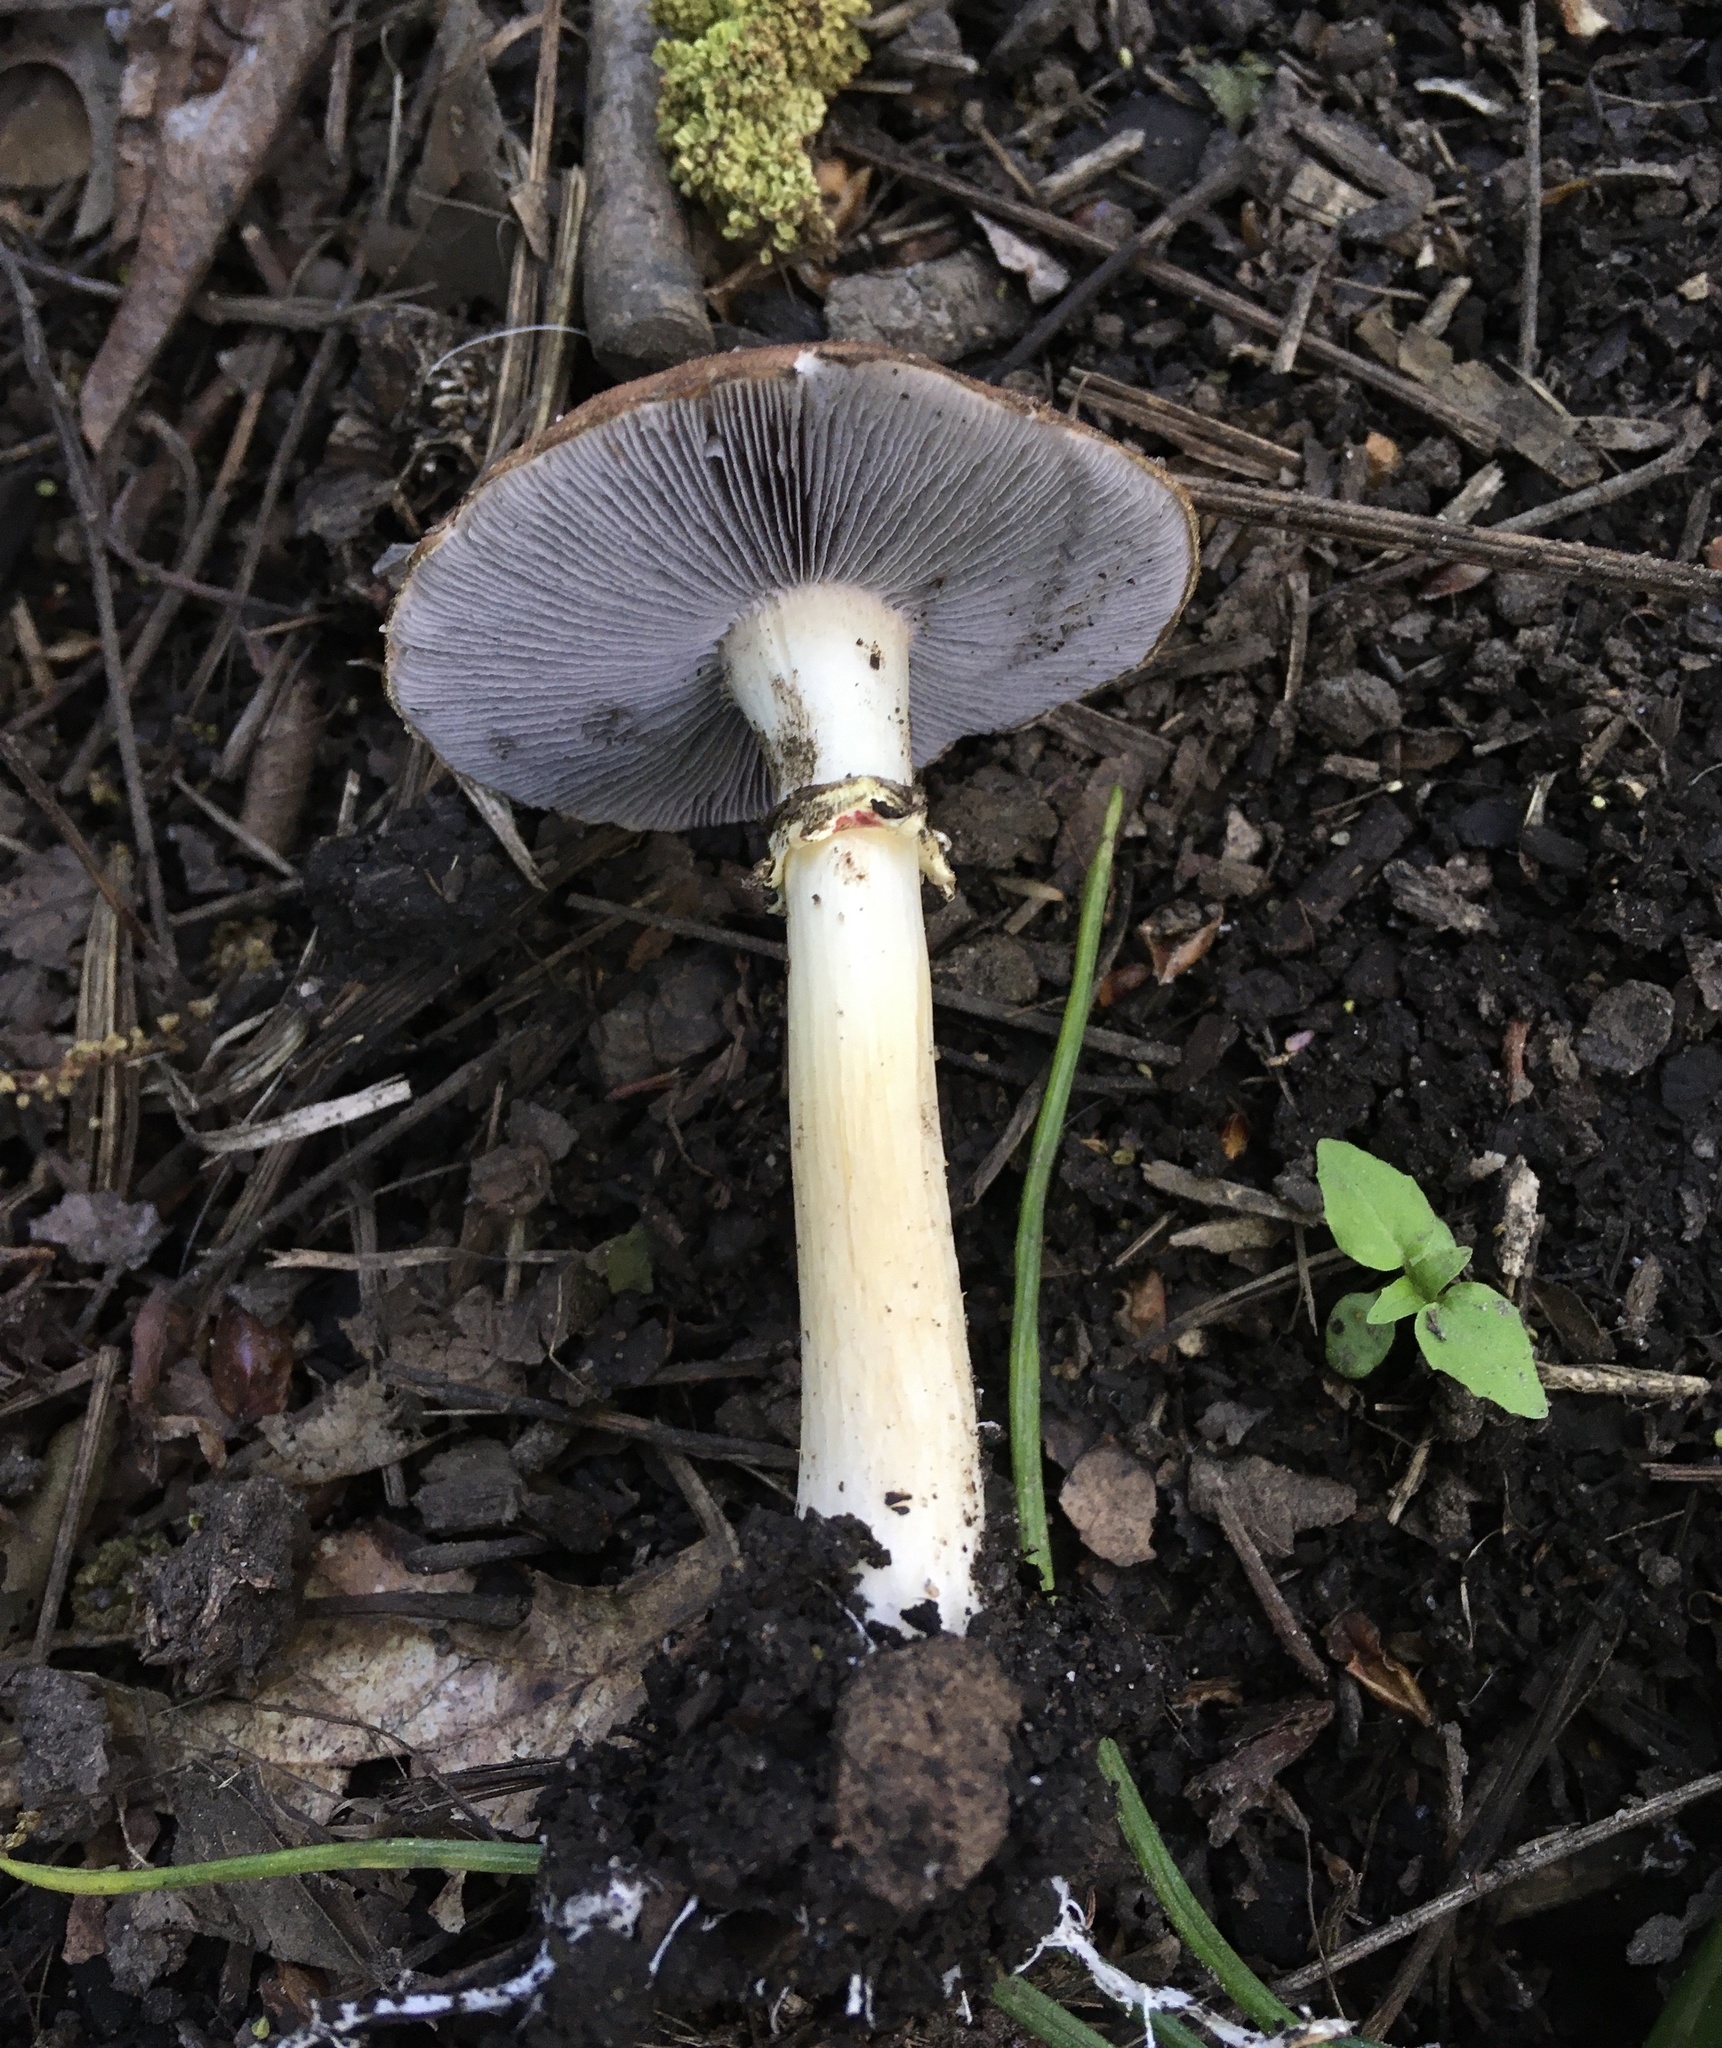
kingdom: Fungi
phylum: Basidiomycota
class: Agaricomycetes
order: Agaricales
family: Strophariaceae
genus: Stropharia
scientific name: Stropharia rugosoannulata
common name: Wine roundhead
